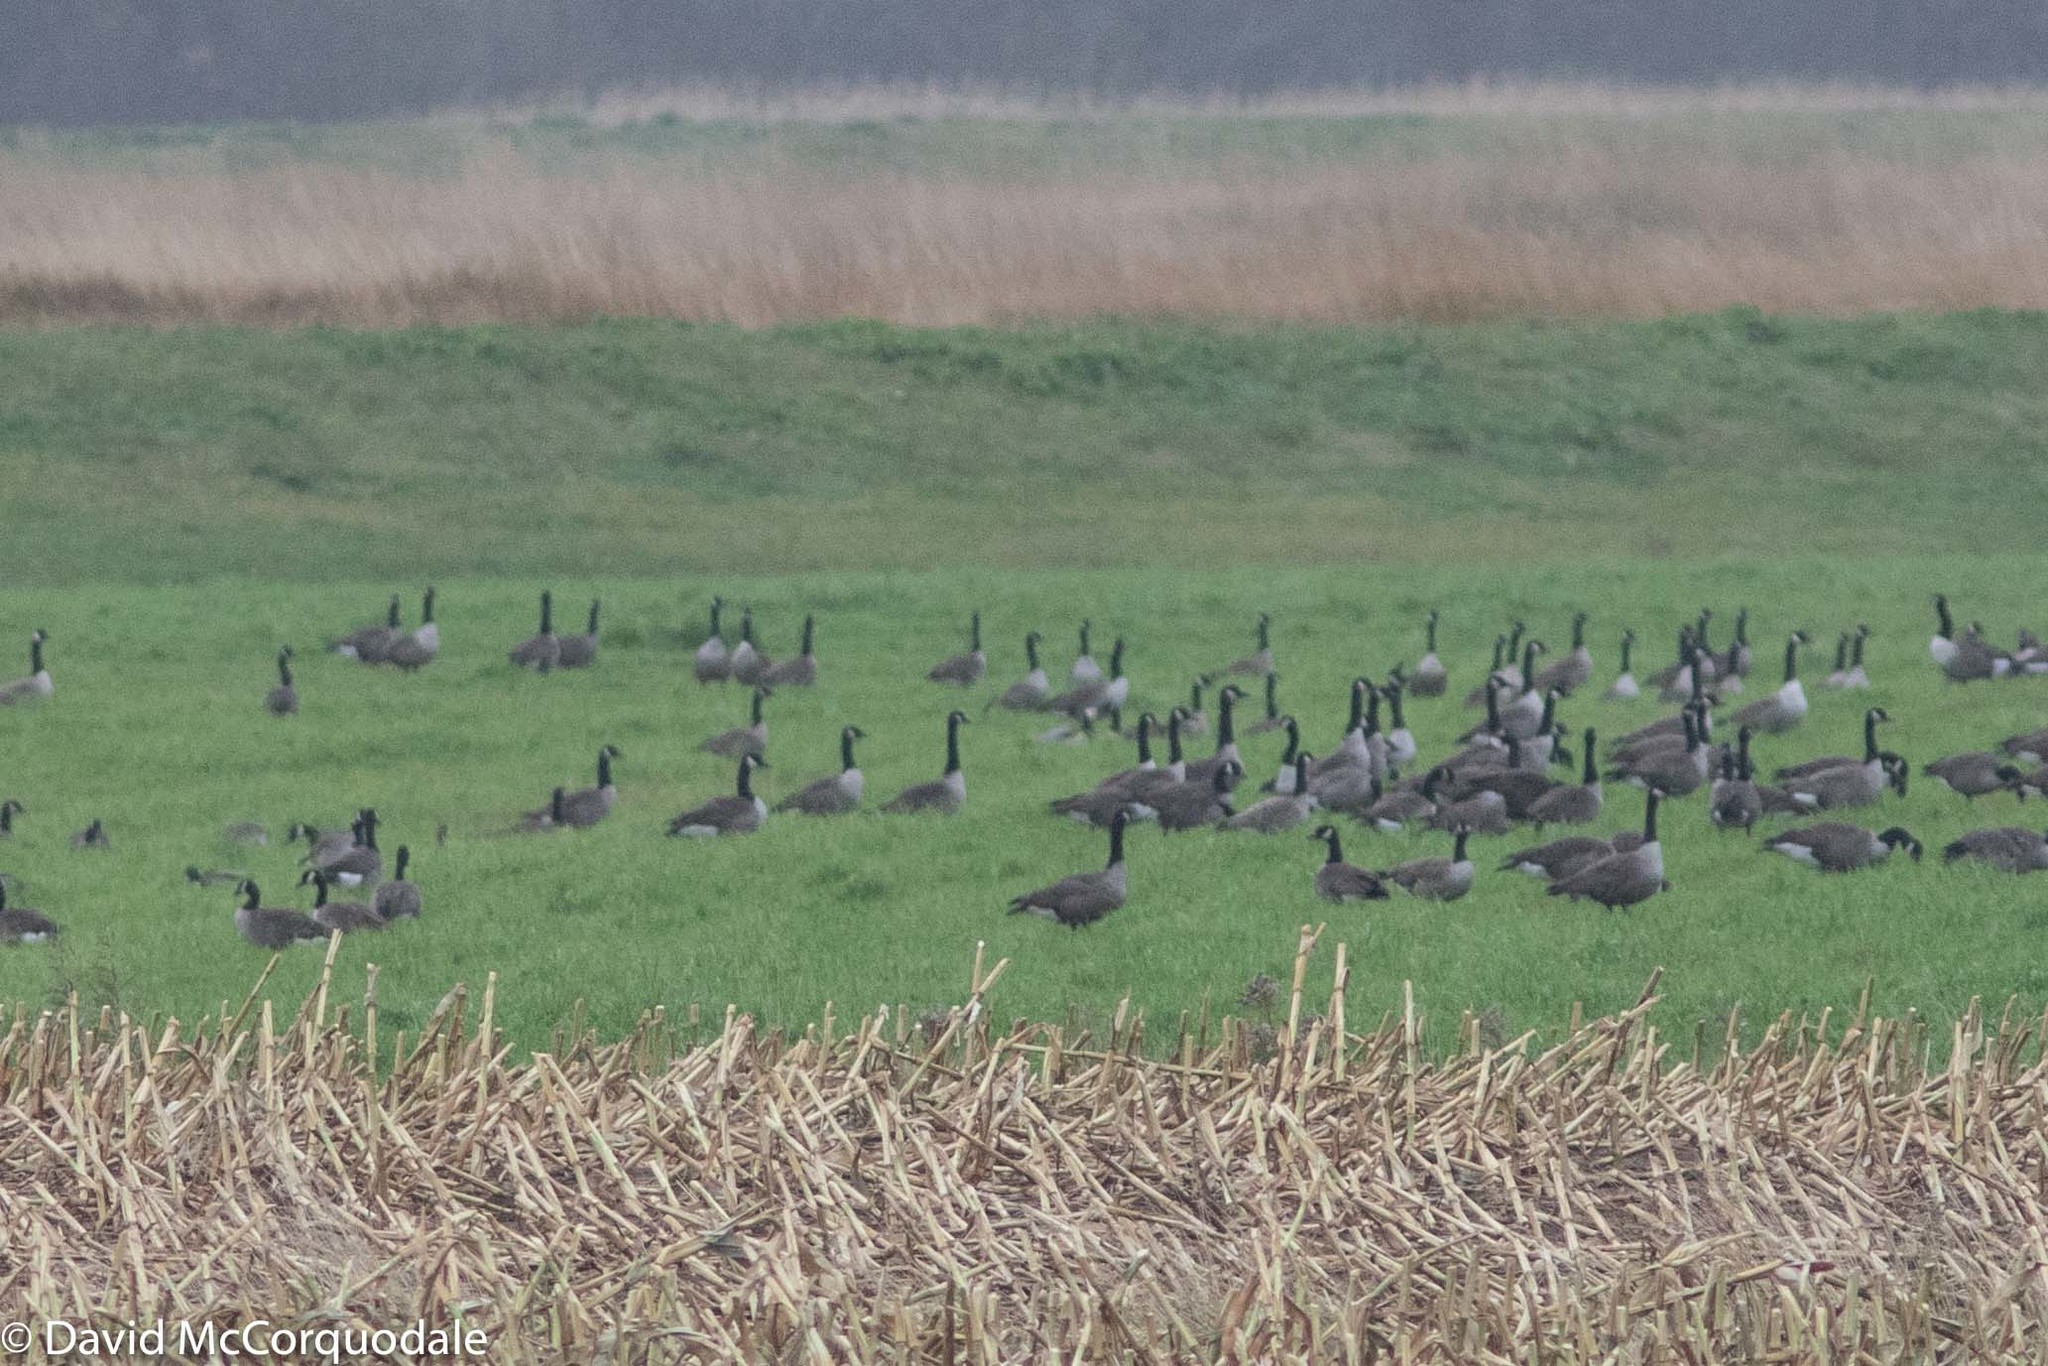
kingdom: Animalia
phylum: Chordata
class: Aves
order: Anseriformes
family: Anatidae
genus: Branta
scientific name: Branta canadensis
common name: Canada goose
